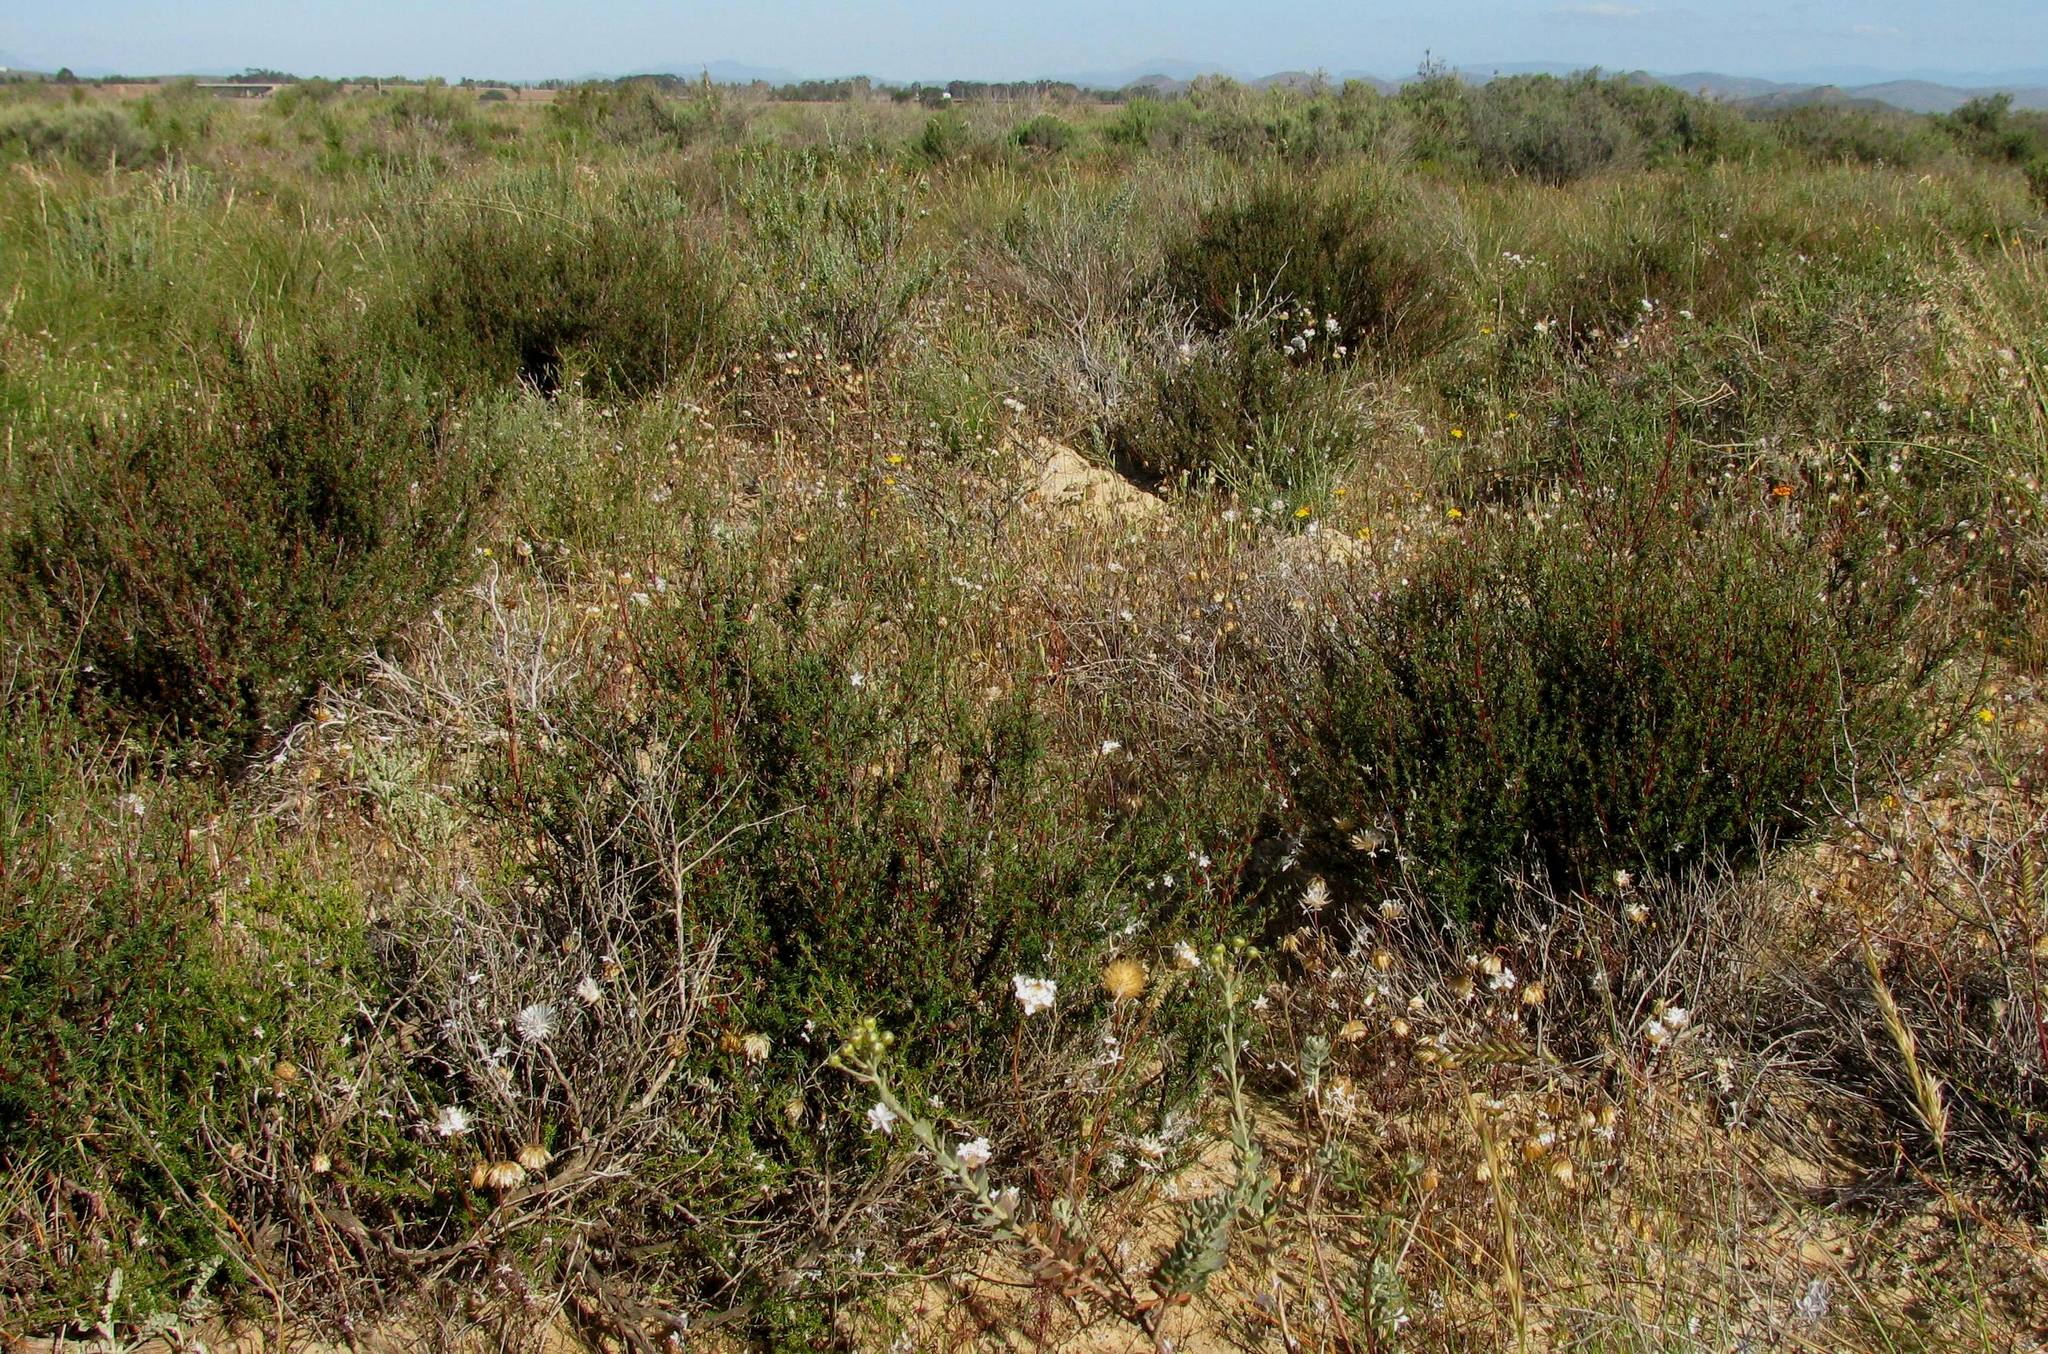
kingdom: Plantae
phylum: Tracheophyta
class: Magnoliopsida
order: Rosales
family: Rosaceae
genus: Cliffortia
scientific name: Cliffortia teretifolia
